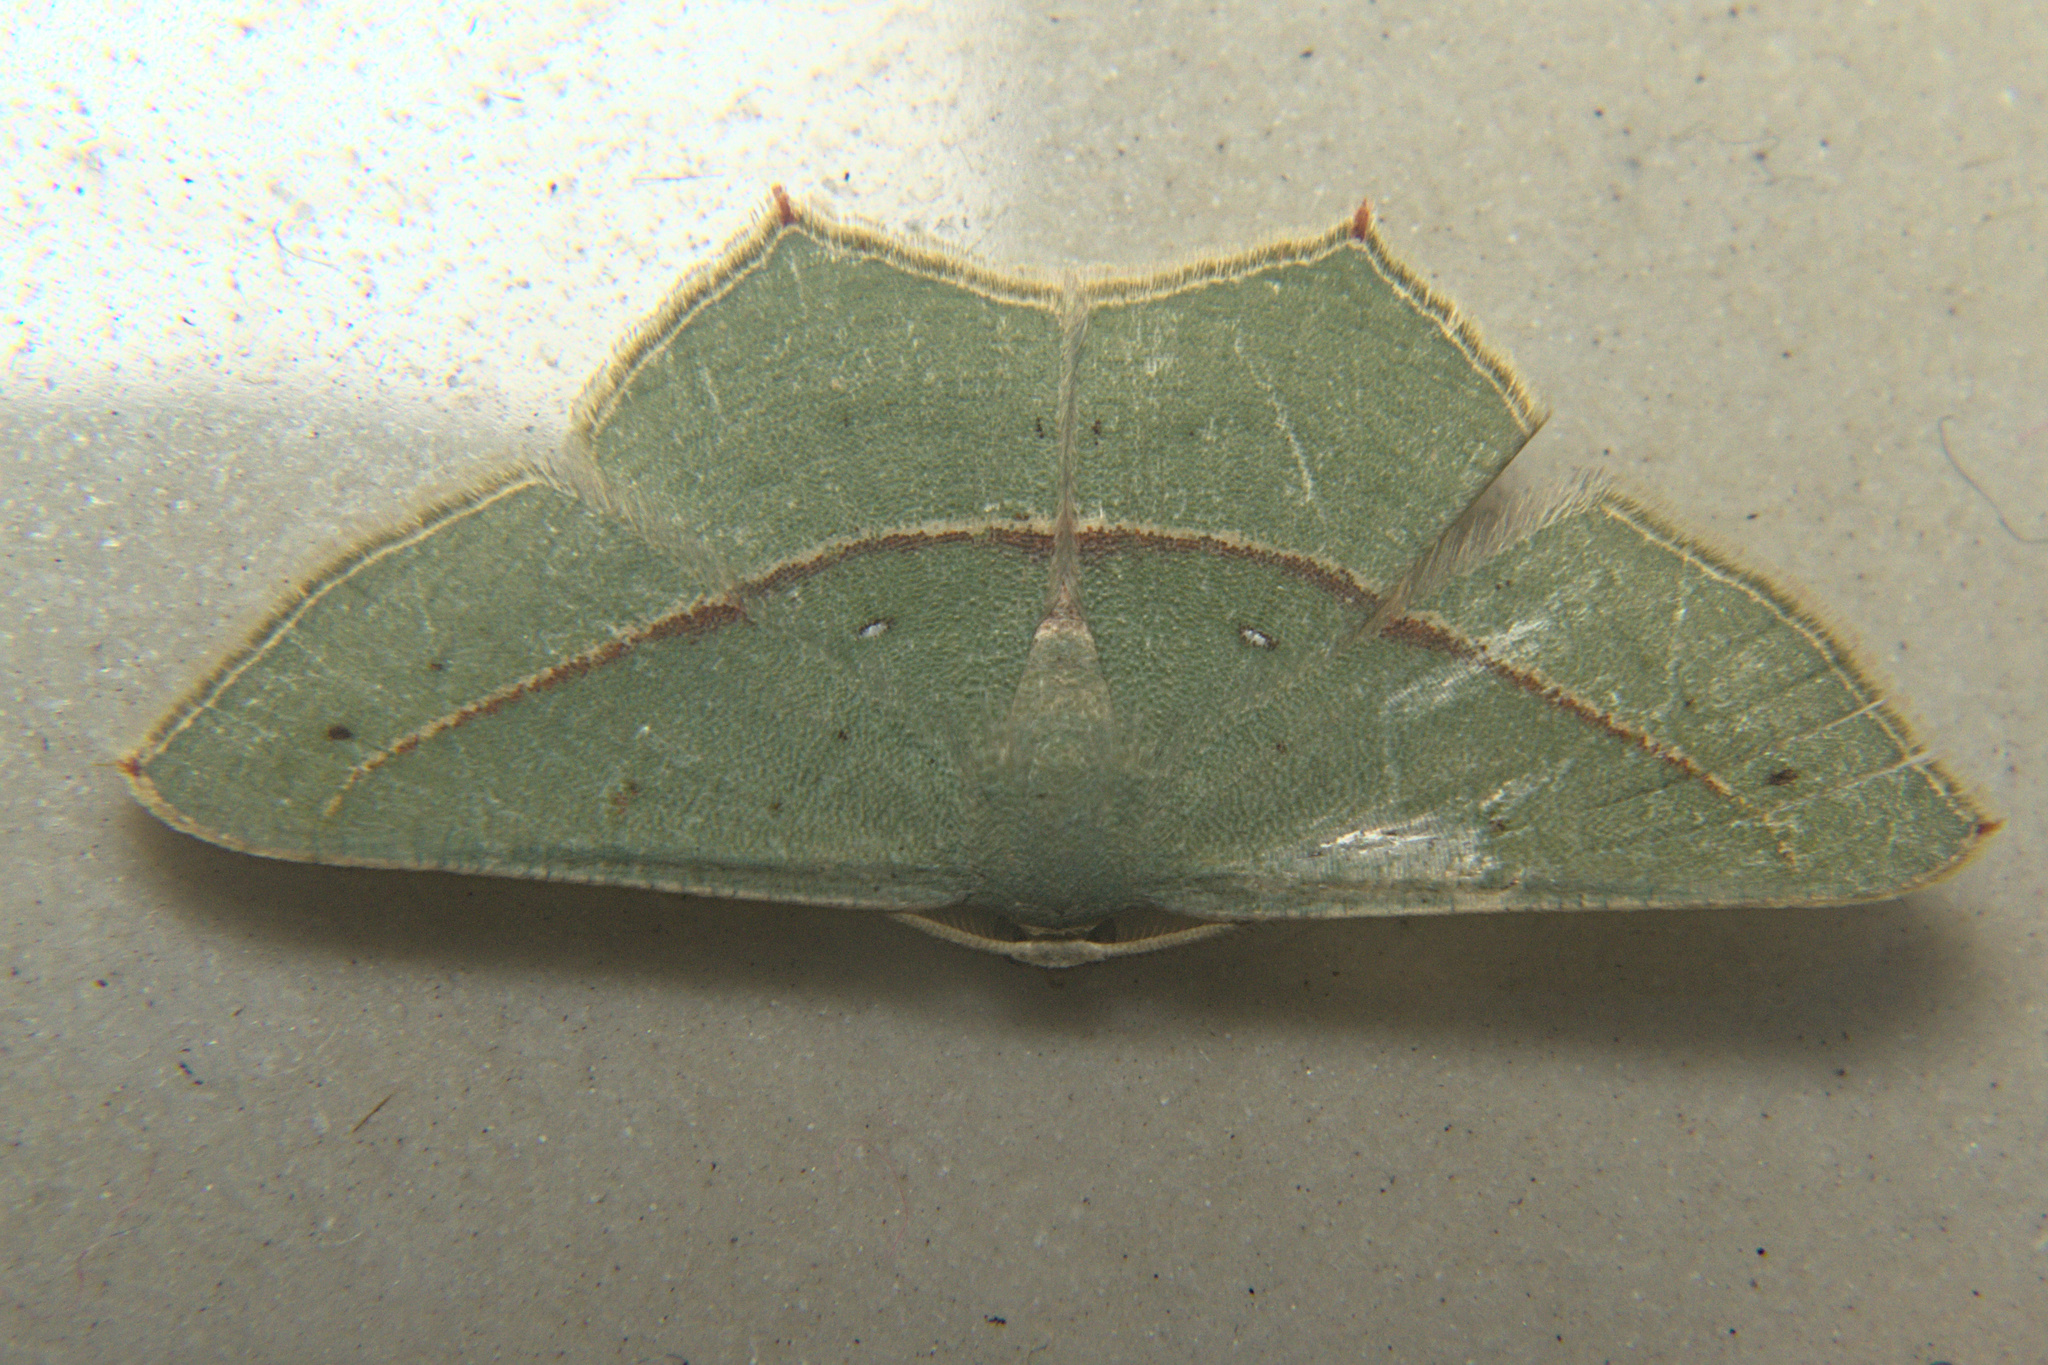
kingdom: Animalia
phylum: Arthropoda
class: Insecta
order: Lepidoptera
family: Geometridae
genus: Traminda
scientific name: Traminda mundissima
